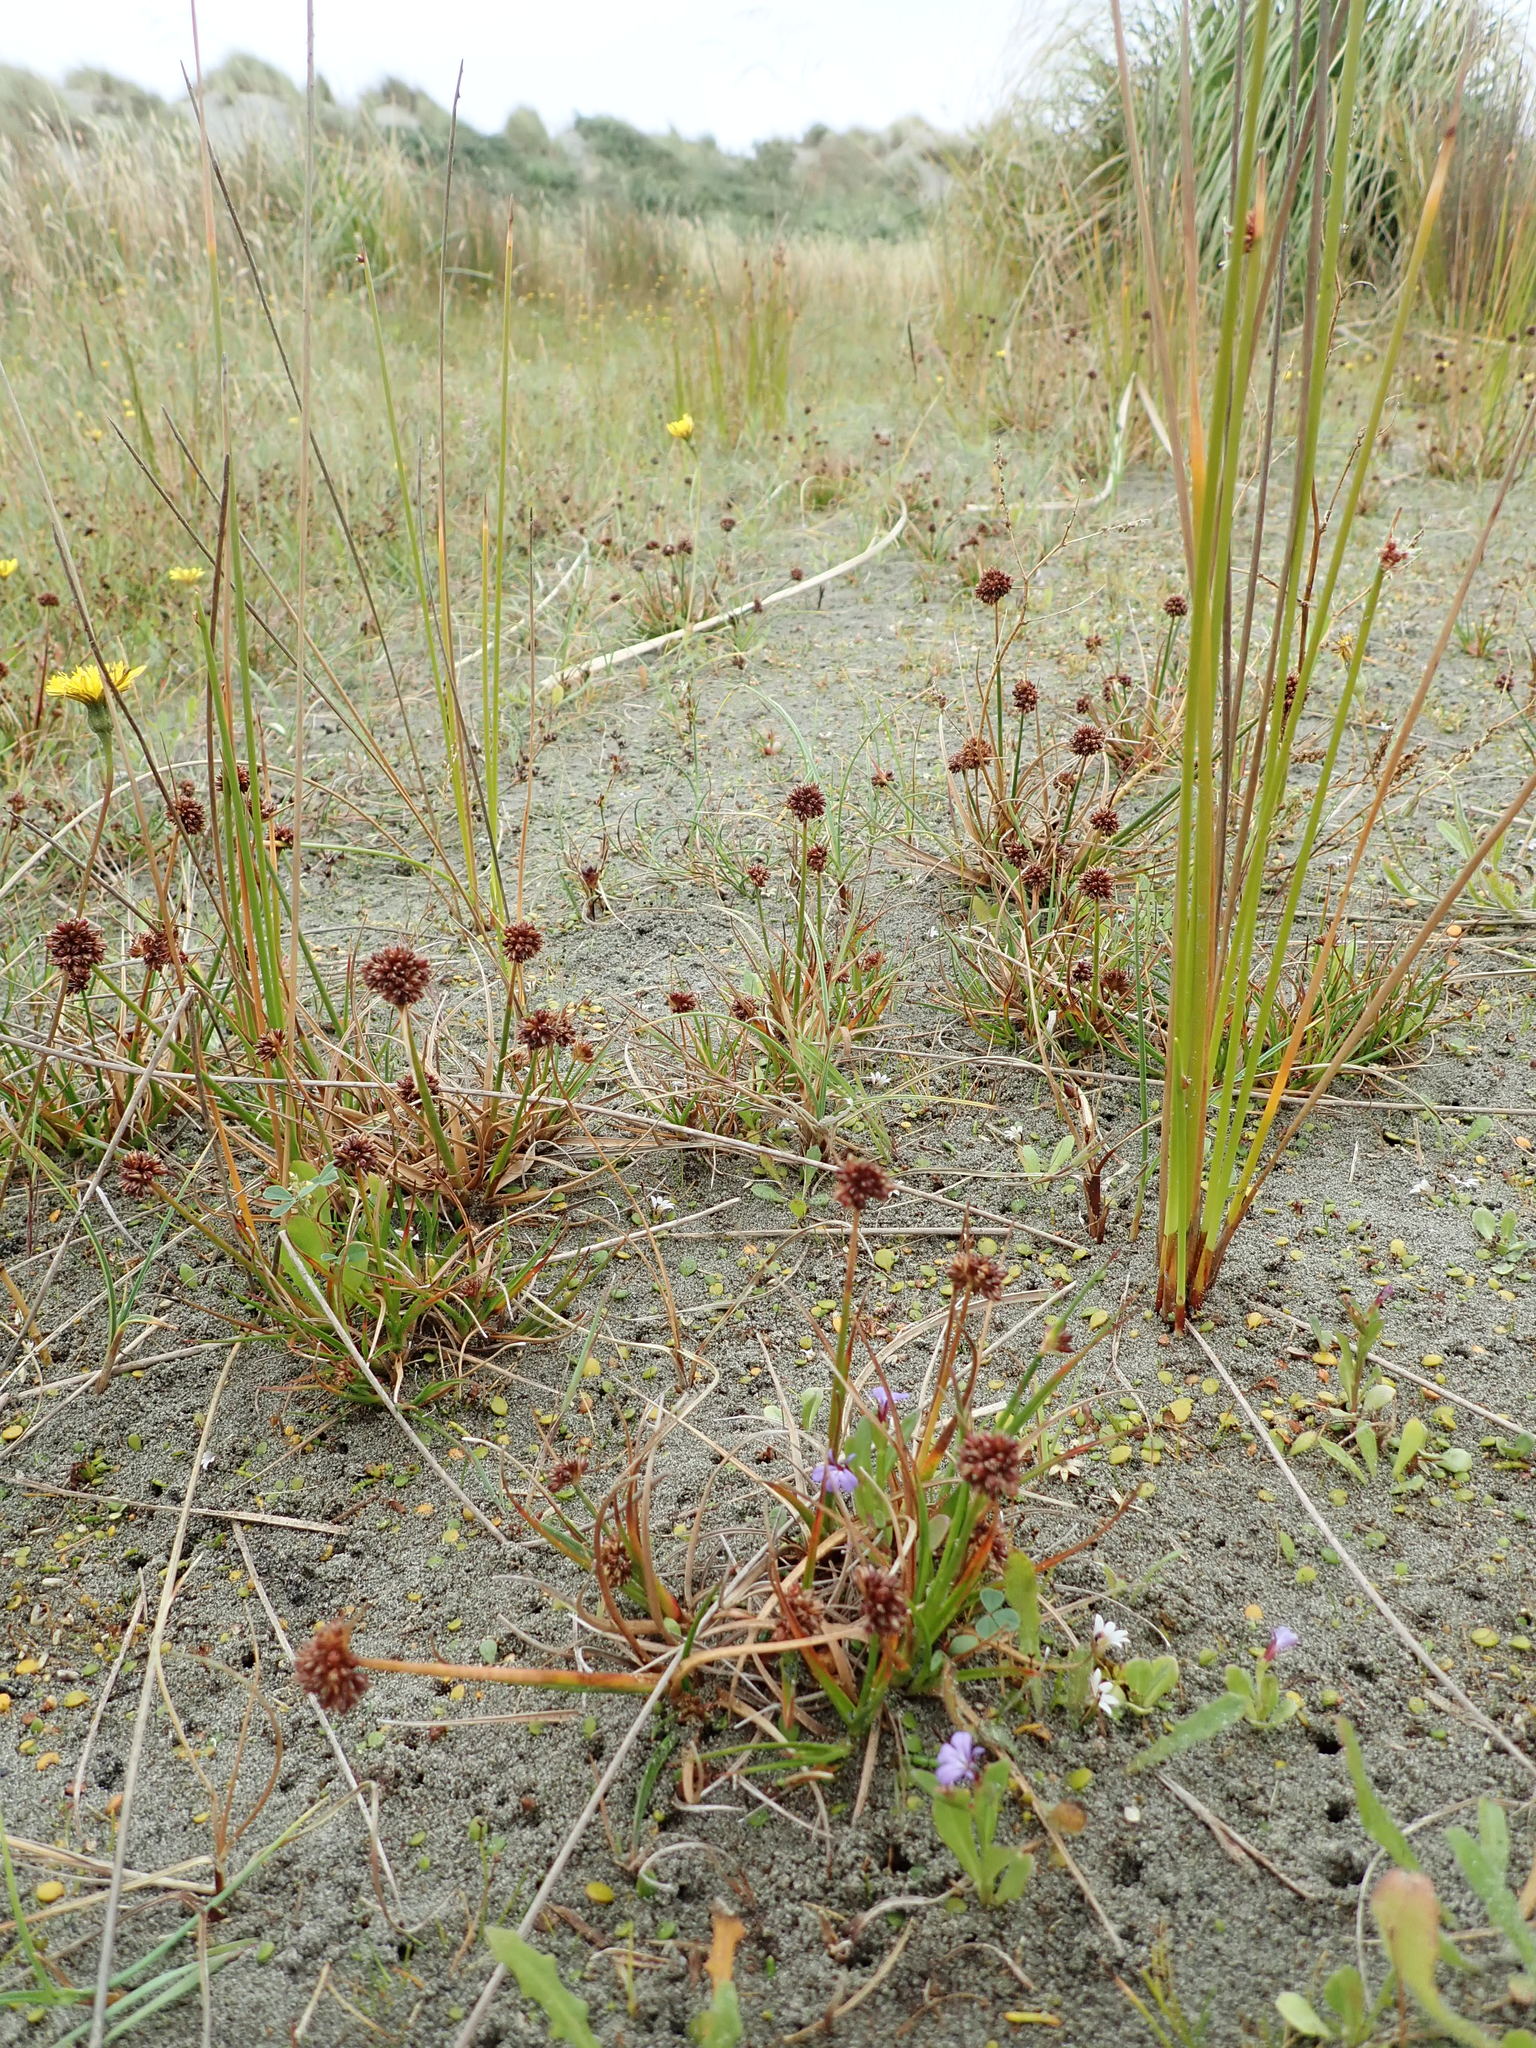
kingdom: Plantae
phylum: Tracheophyta
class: Liliopsida
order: Poales
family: Juncaceae
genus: Juncus
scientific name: Juncus caespiticius
